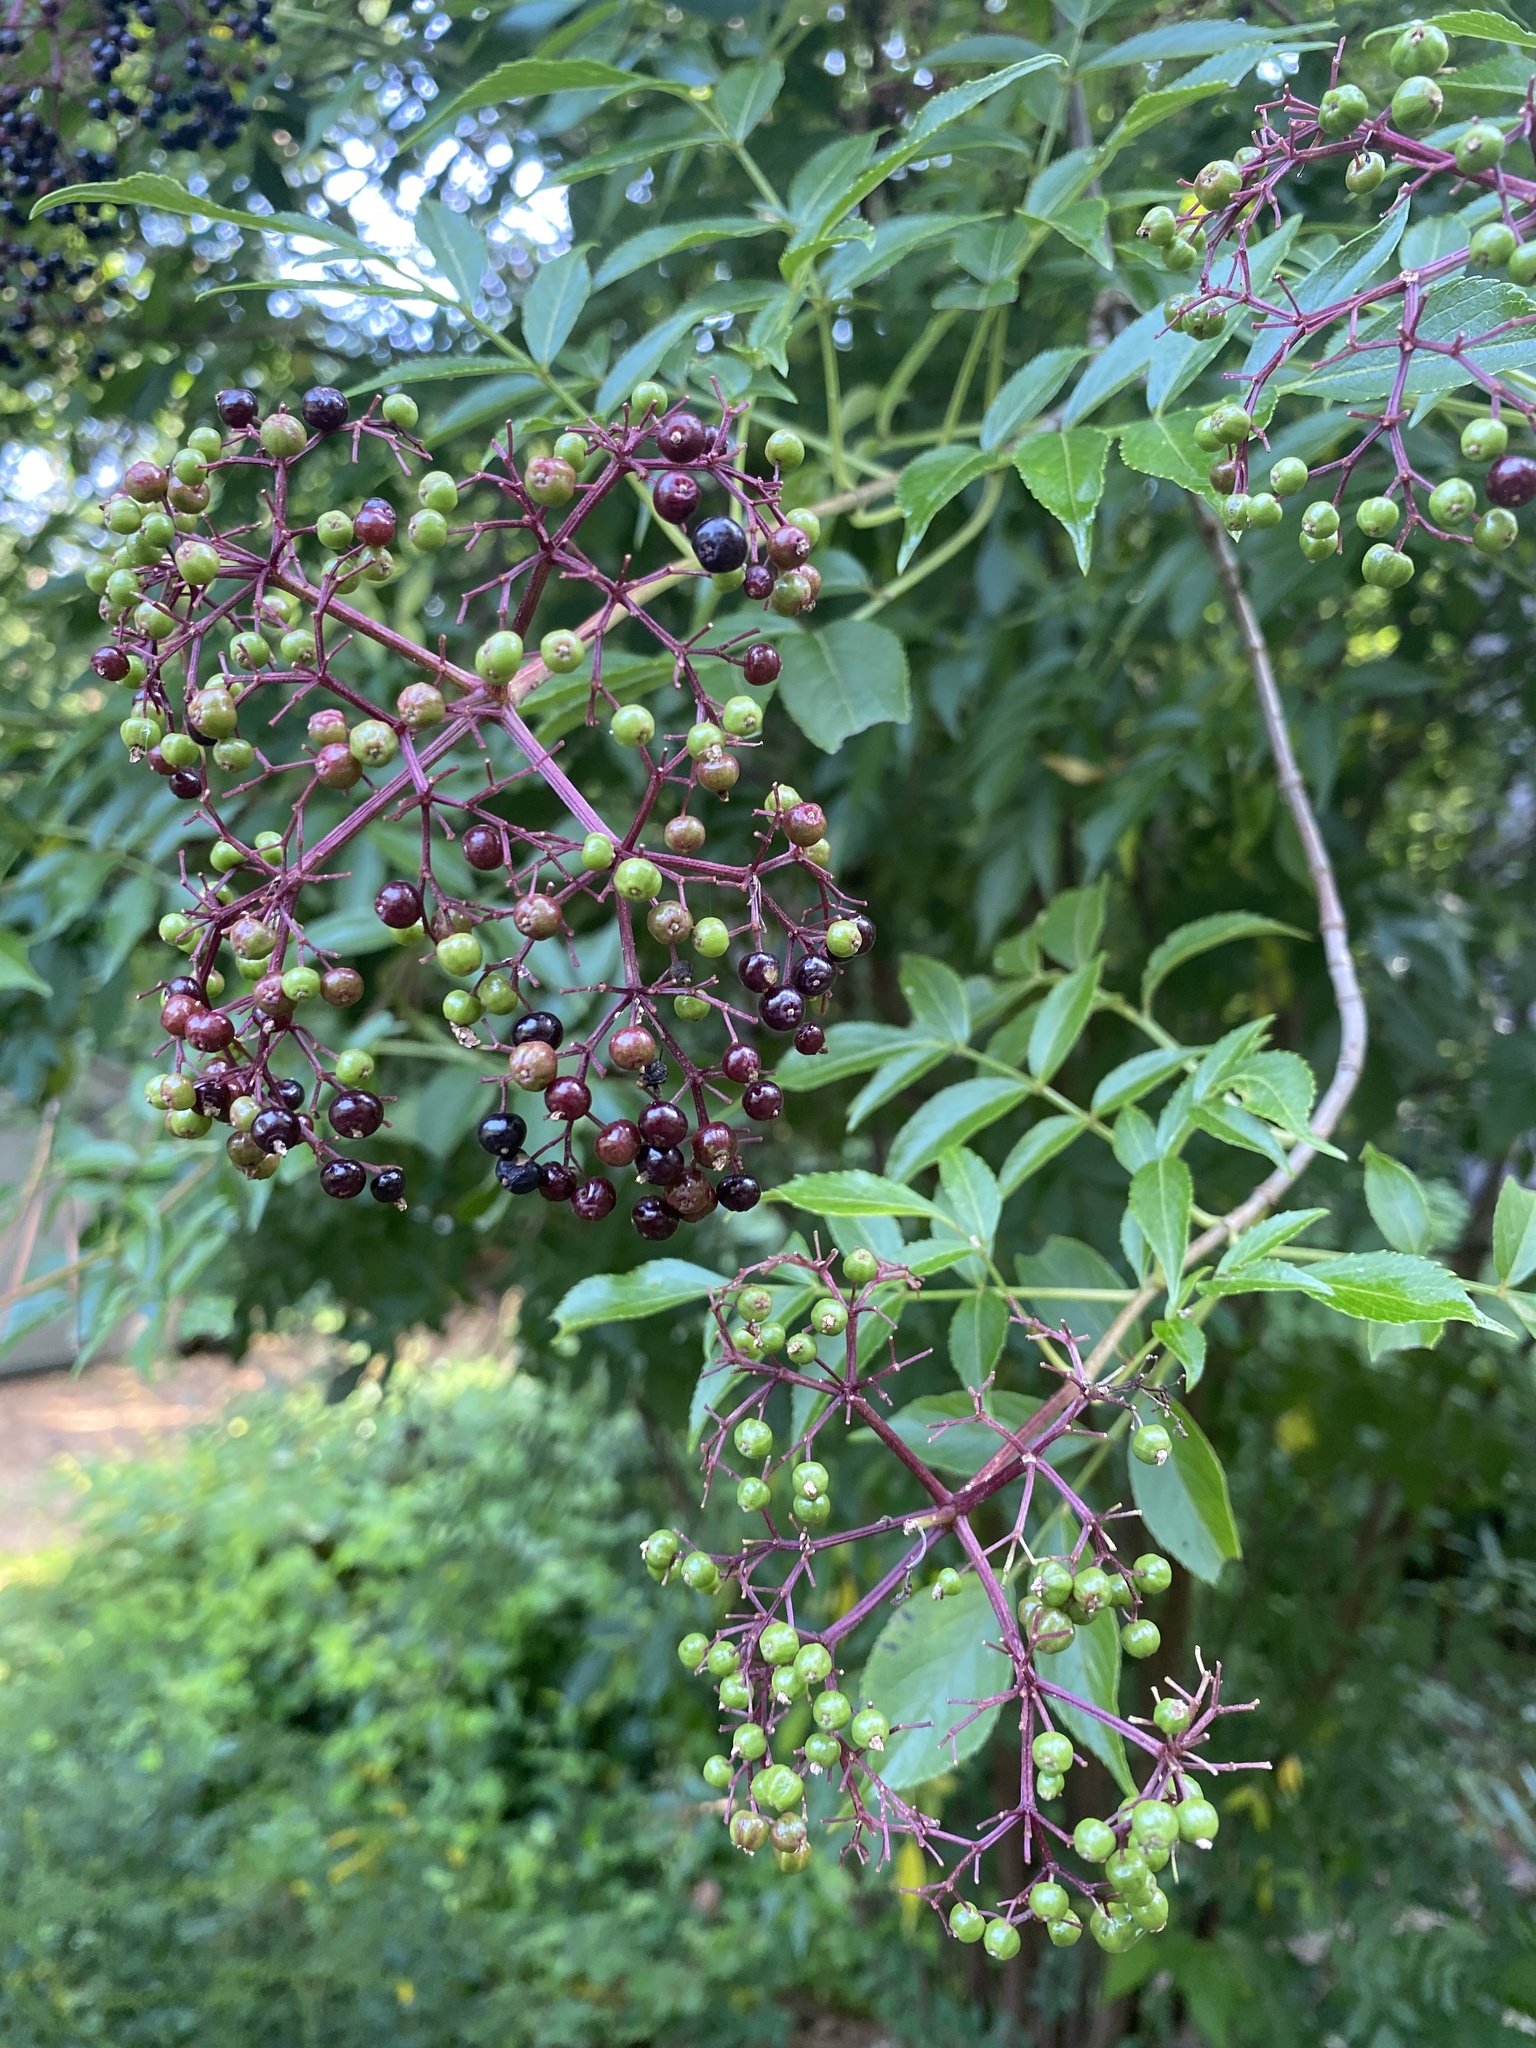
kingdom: Plantae
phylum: Tracheophyta
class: Magnoliopsida
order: Dipsacales
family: Viburnaceae
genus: Sambucus
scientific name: Sambucus canadensis
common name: American elder
